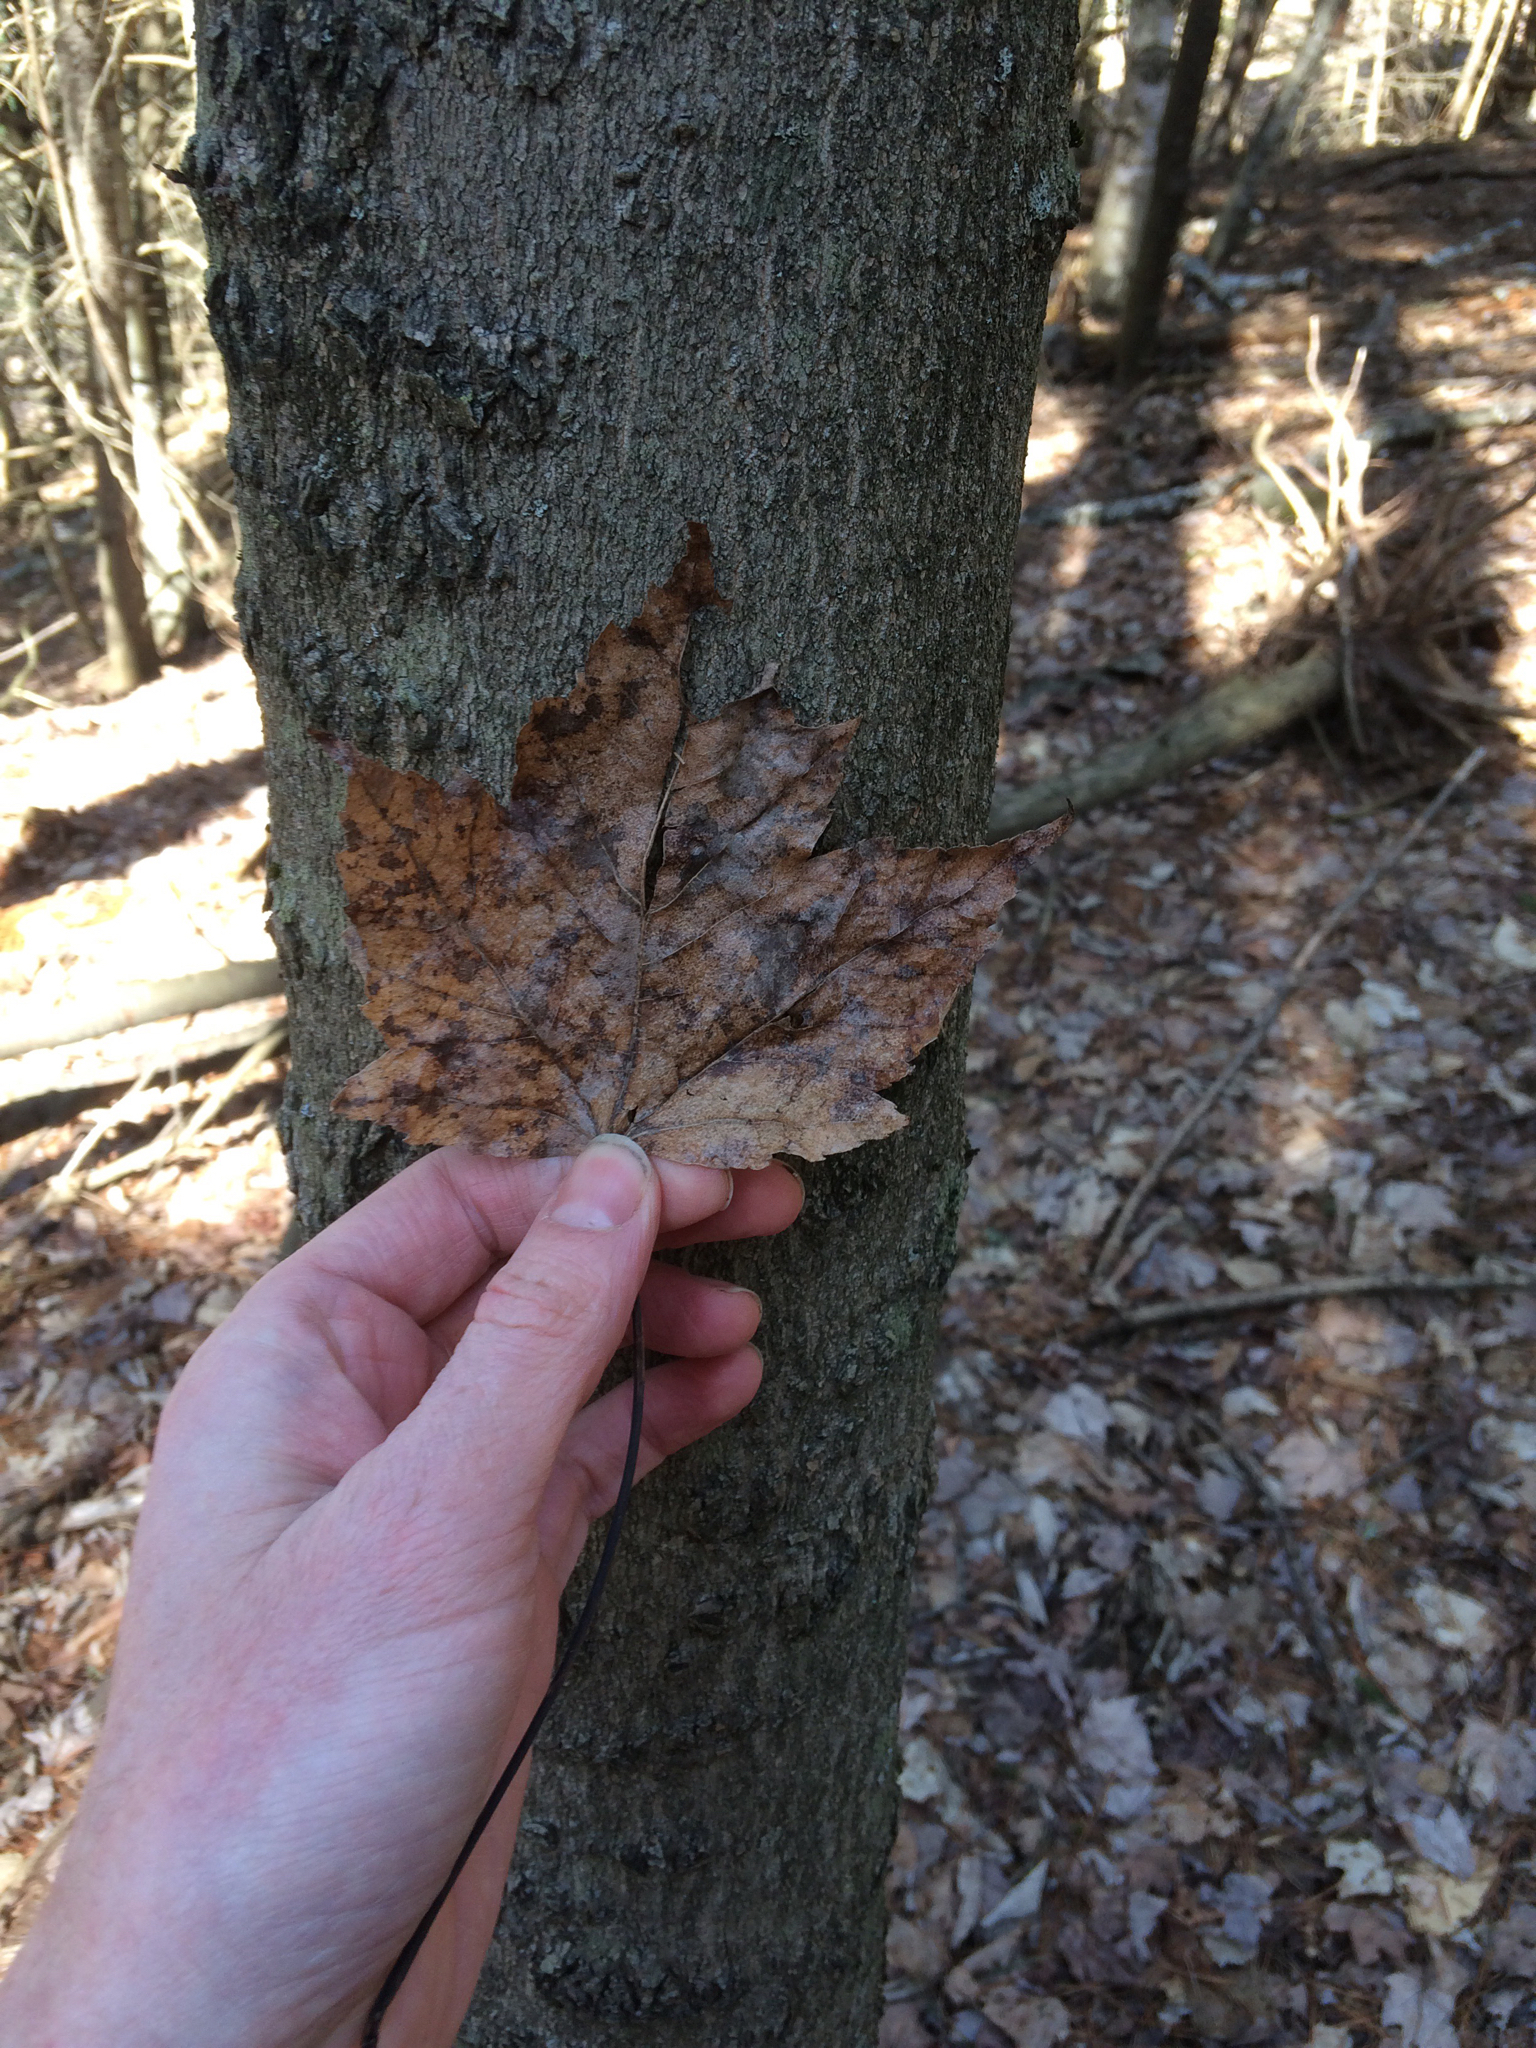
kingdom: Plantae
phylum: Tracheophyta
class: Magnoliopsida
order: Sapindales
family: Sapindaceae
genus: Acer
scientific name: Acer rubrum
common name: Red maple
